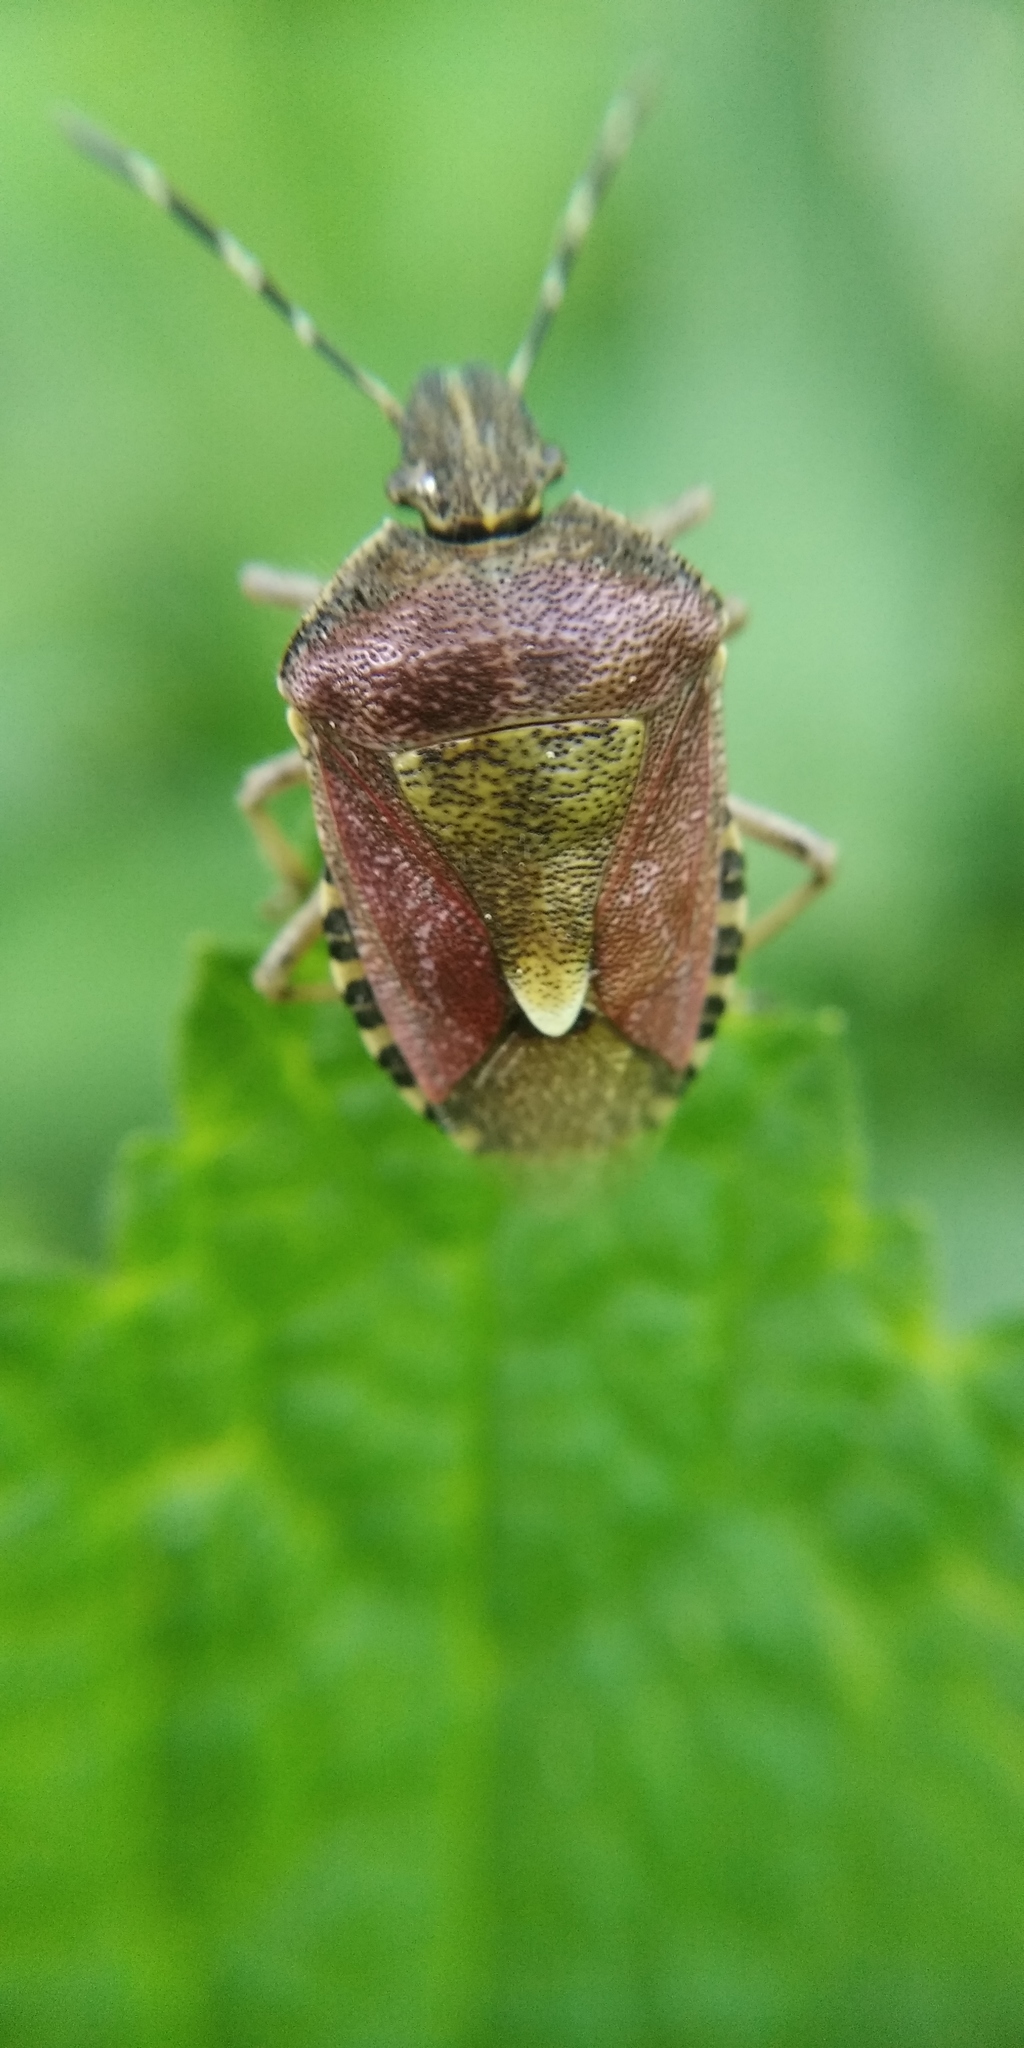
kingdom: Animalia
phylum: Arthropoda
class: Insecta
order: Hemiptera
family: Pentatomidae
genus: Dolycoris
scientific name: Dolycoris baccarum
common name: Sloe bug
